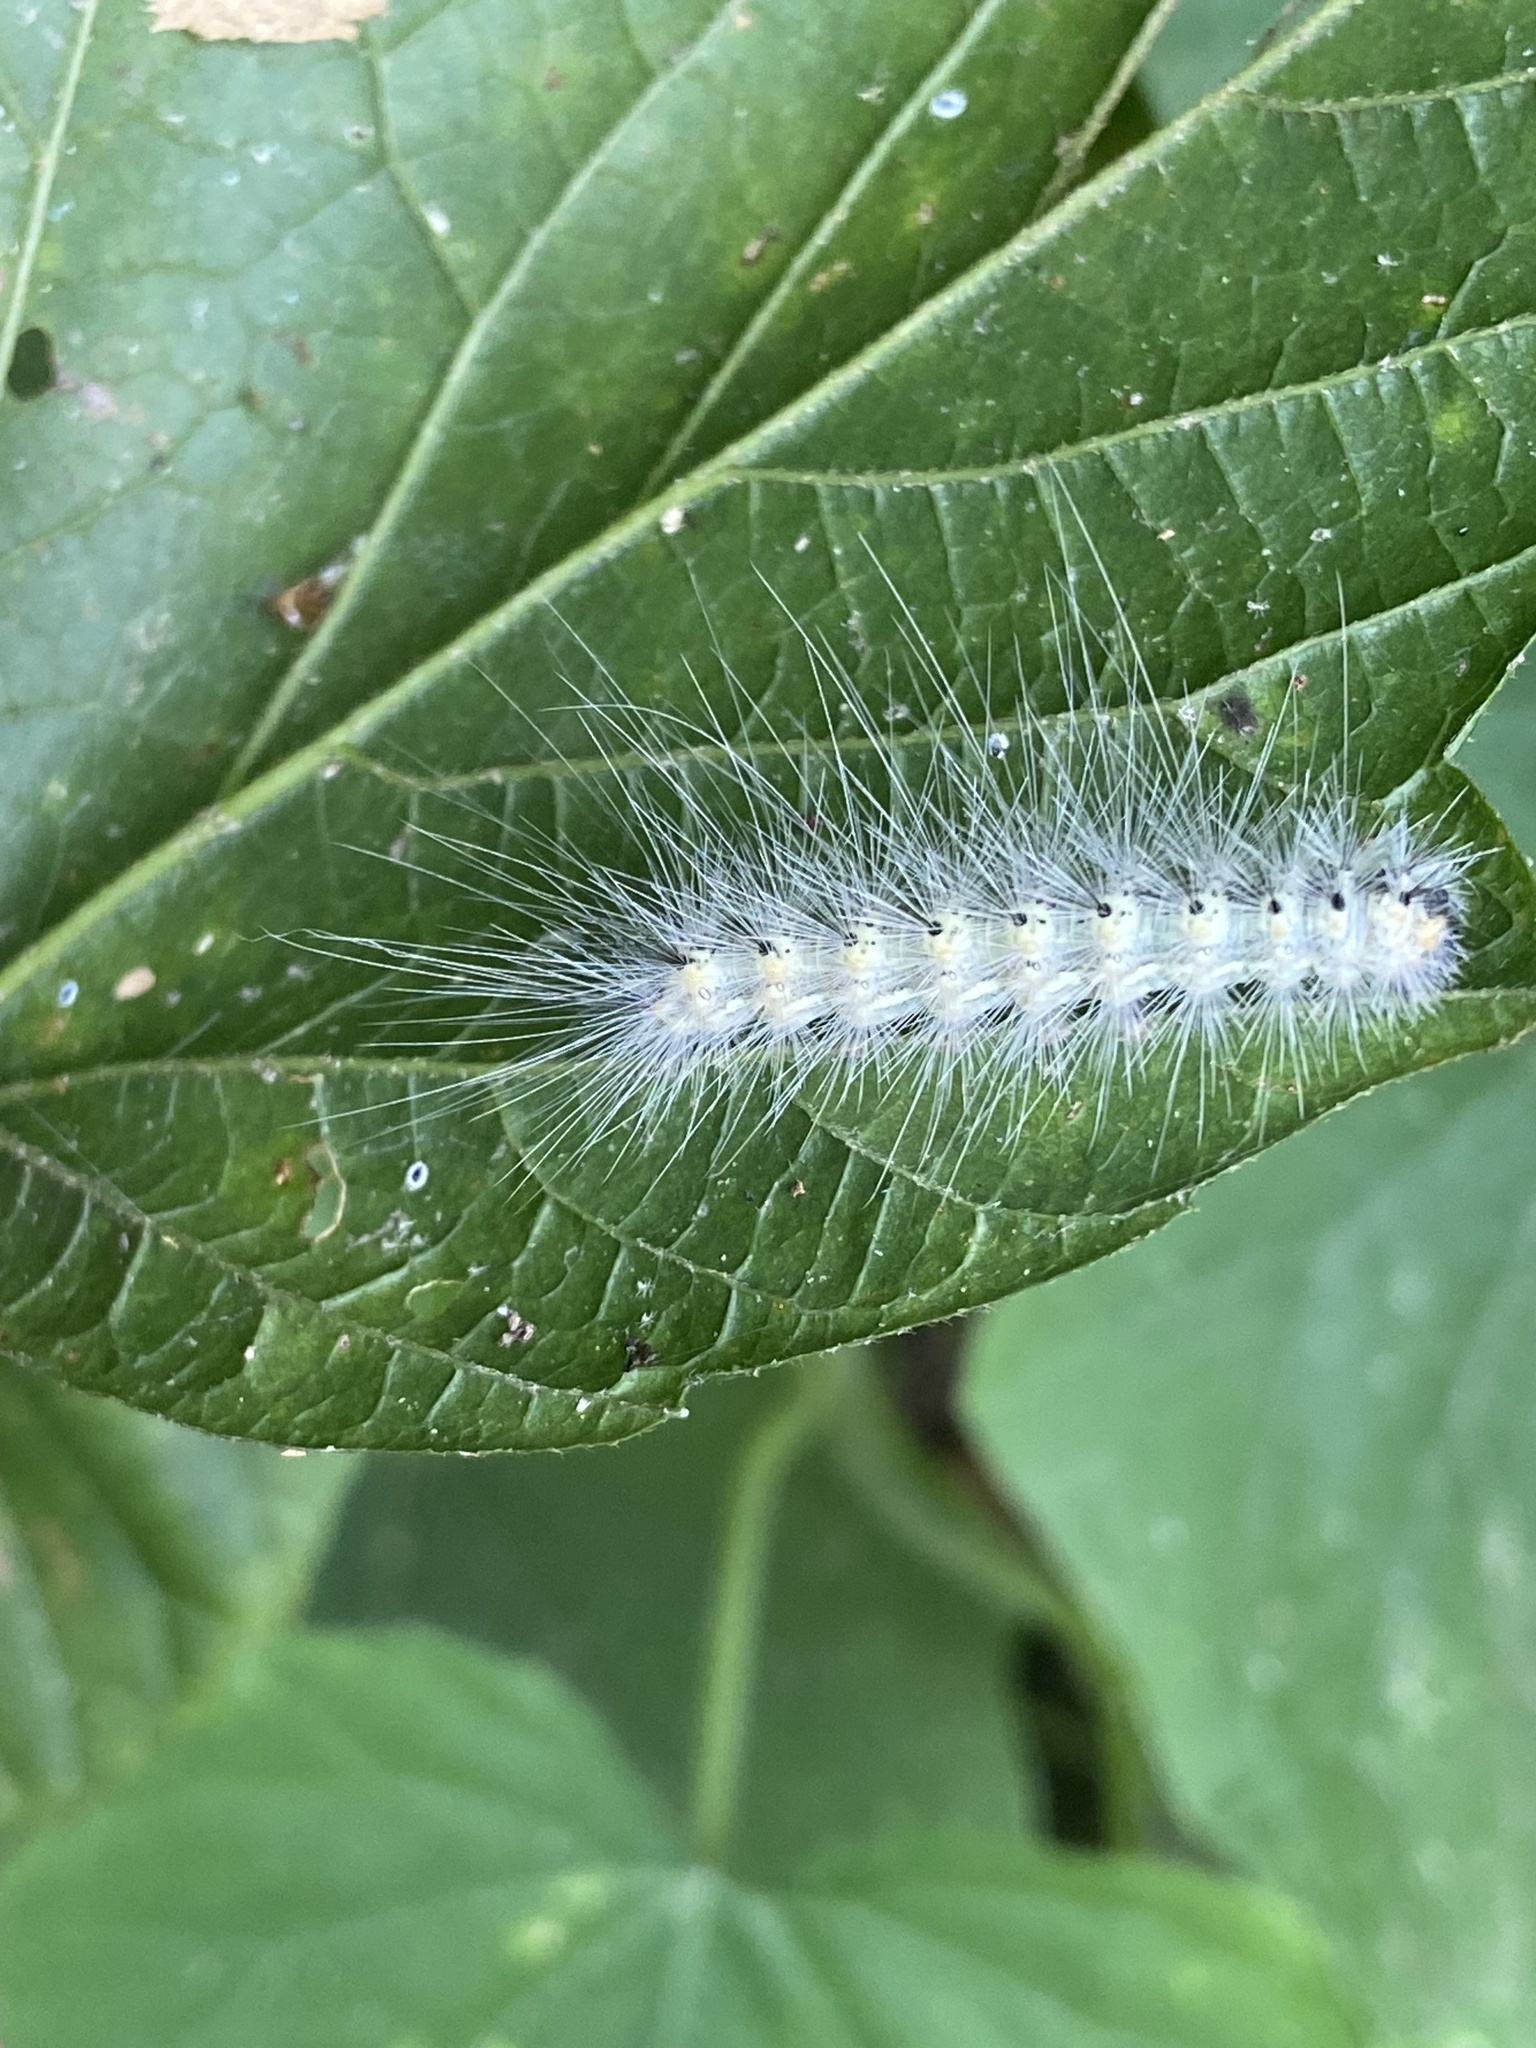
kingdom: Animalia
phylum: Arthropoda
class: Insecta
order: Lepidoptera
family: Erebidae
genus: Hyphantria
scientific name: Hyphantria cunea
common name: American white moth
